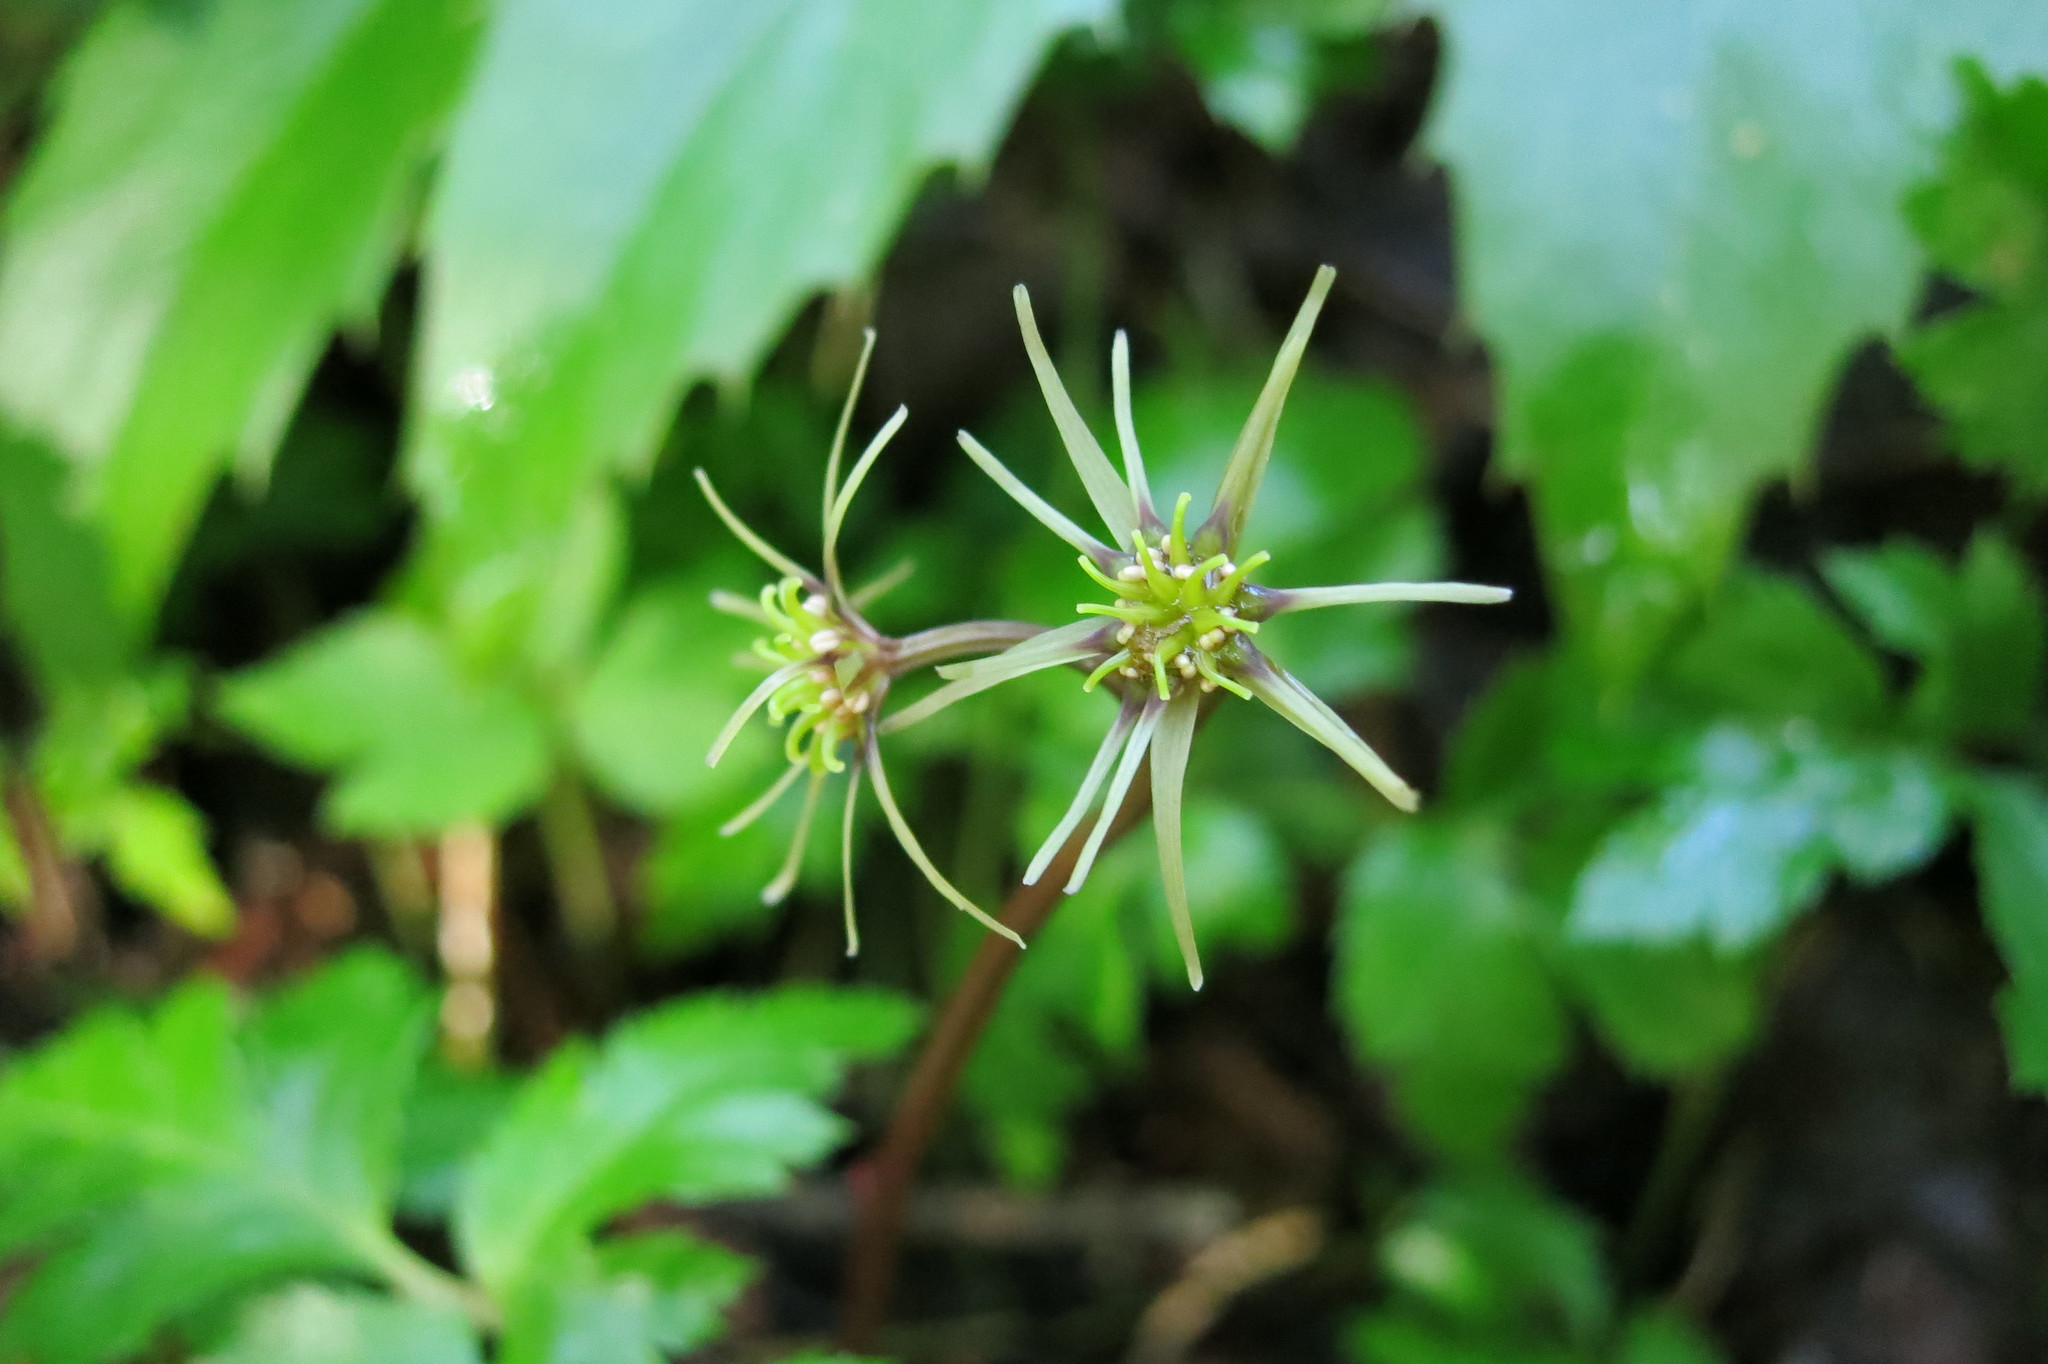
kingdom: Plantae
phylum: Tracheophyta
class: Magnoliopsida
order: Ranunculales
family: Ranunculaceae
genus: Coptis
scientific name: Coptis laciniata
